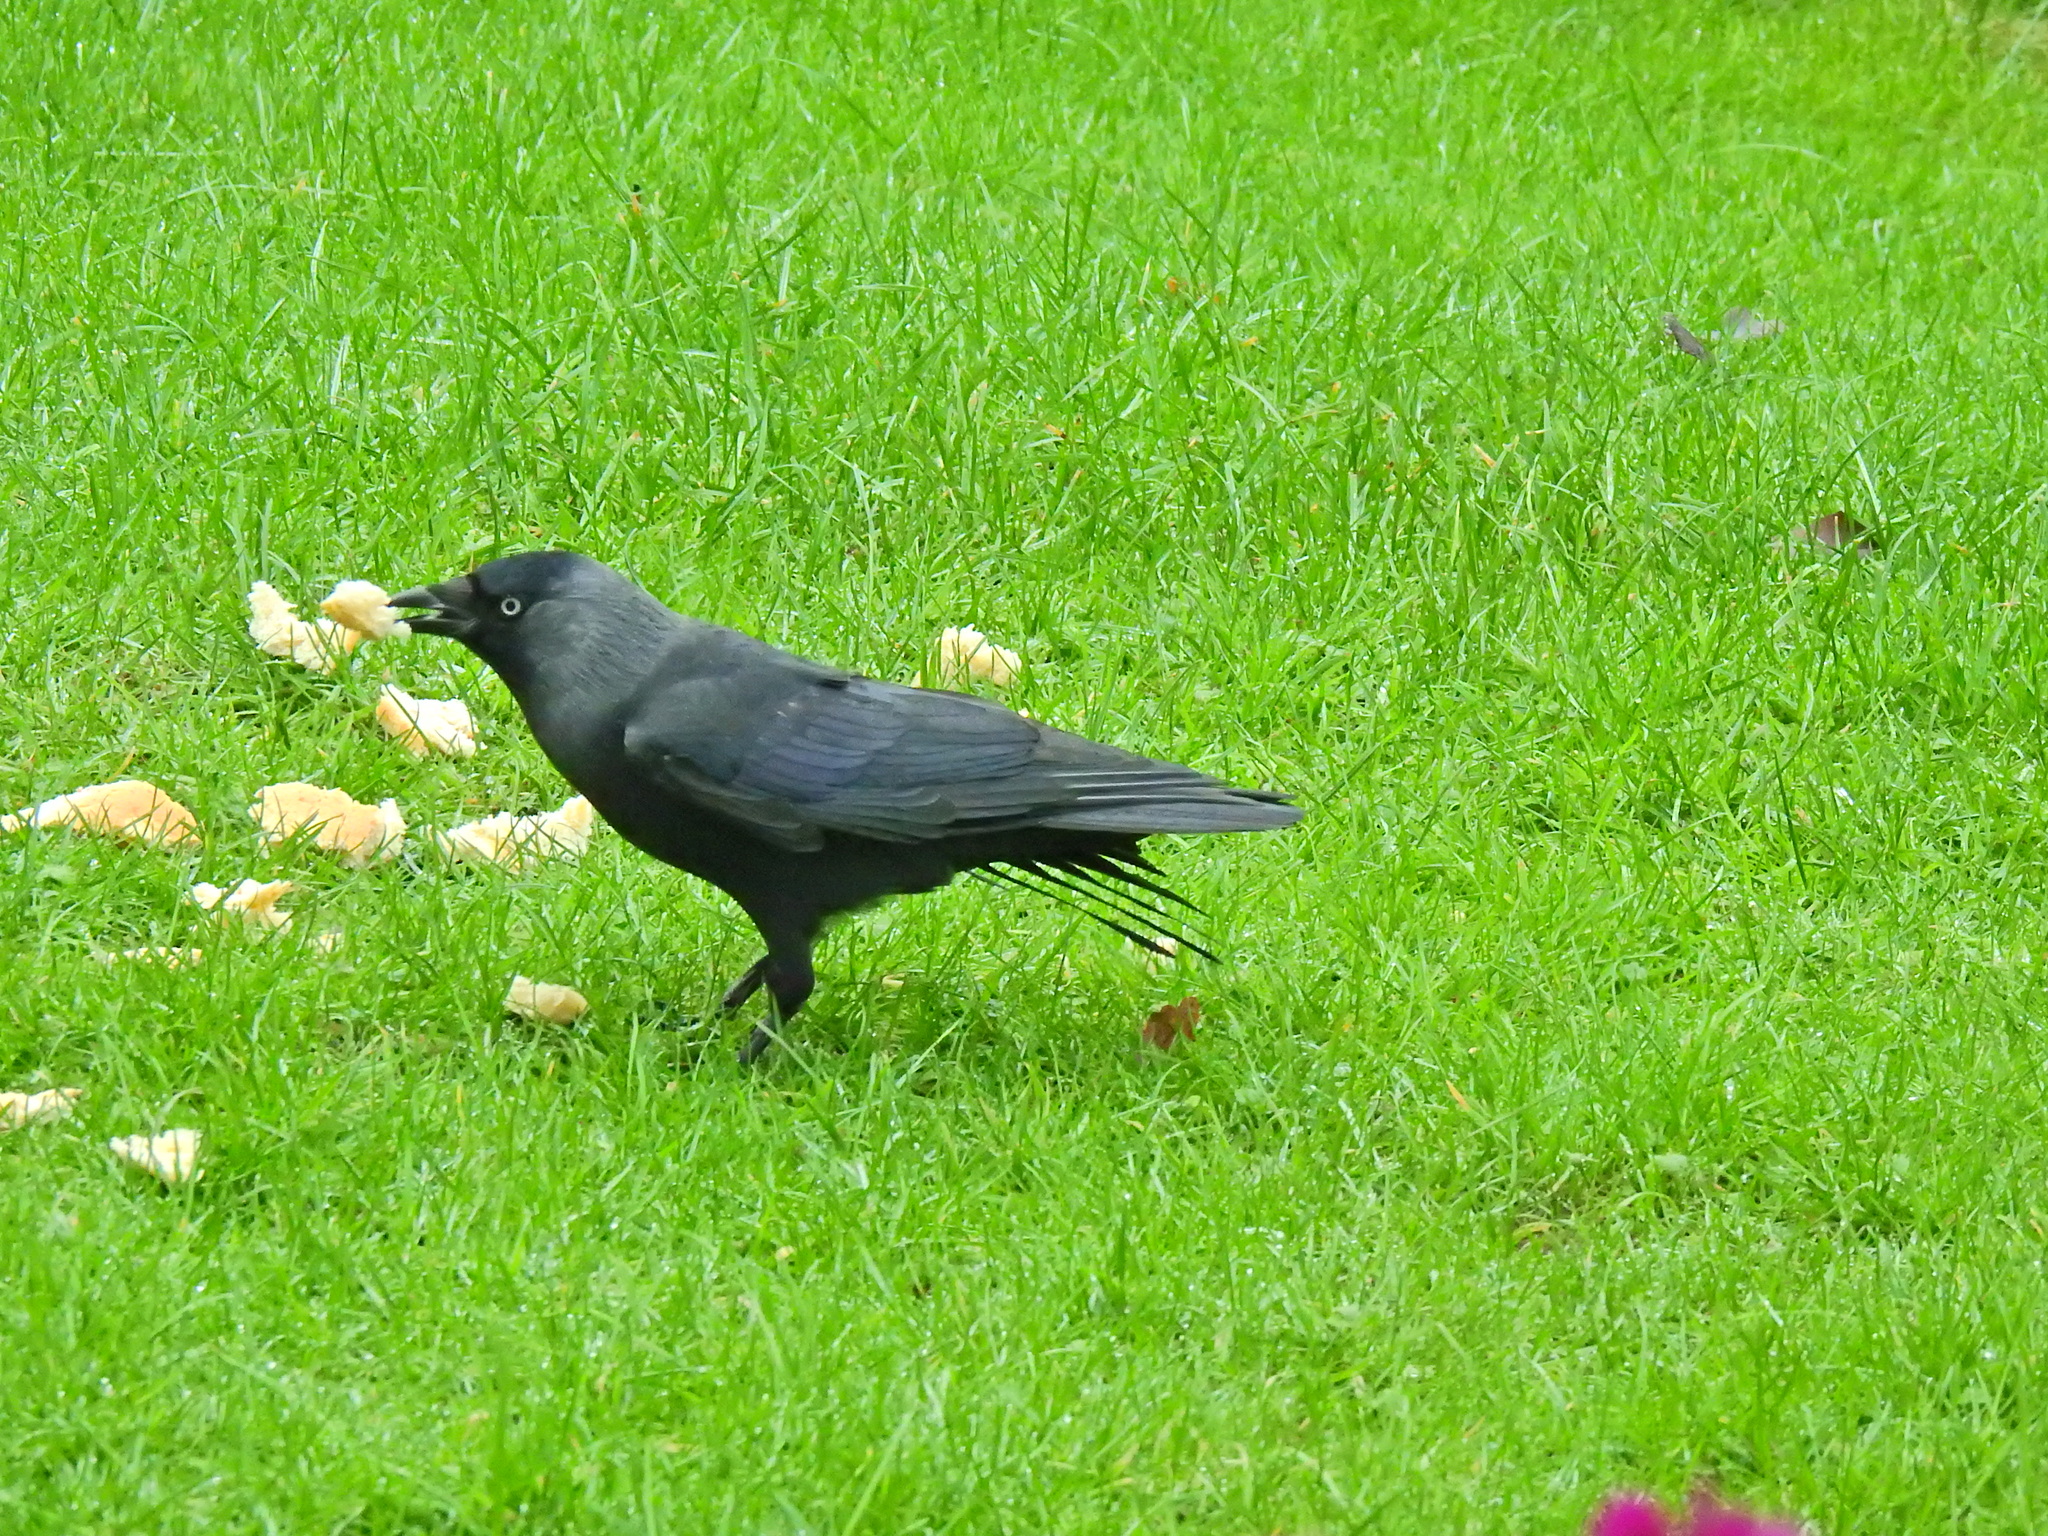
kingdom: Animalia
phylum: Chordata
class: Aves
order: Passeriformes
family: Corvidae
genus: Coloeus
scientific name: Coloeus monedula
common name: Western jackdaw
